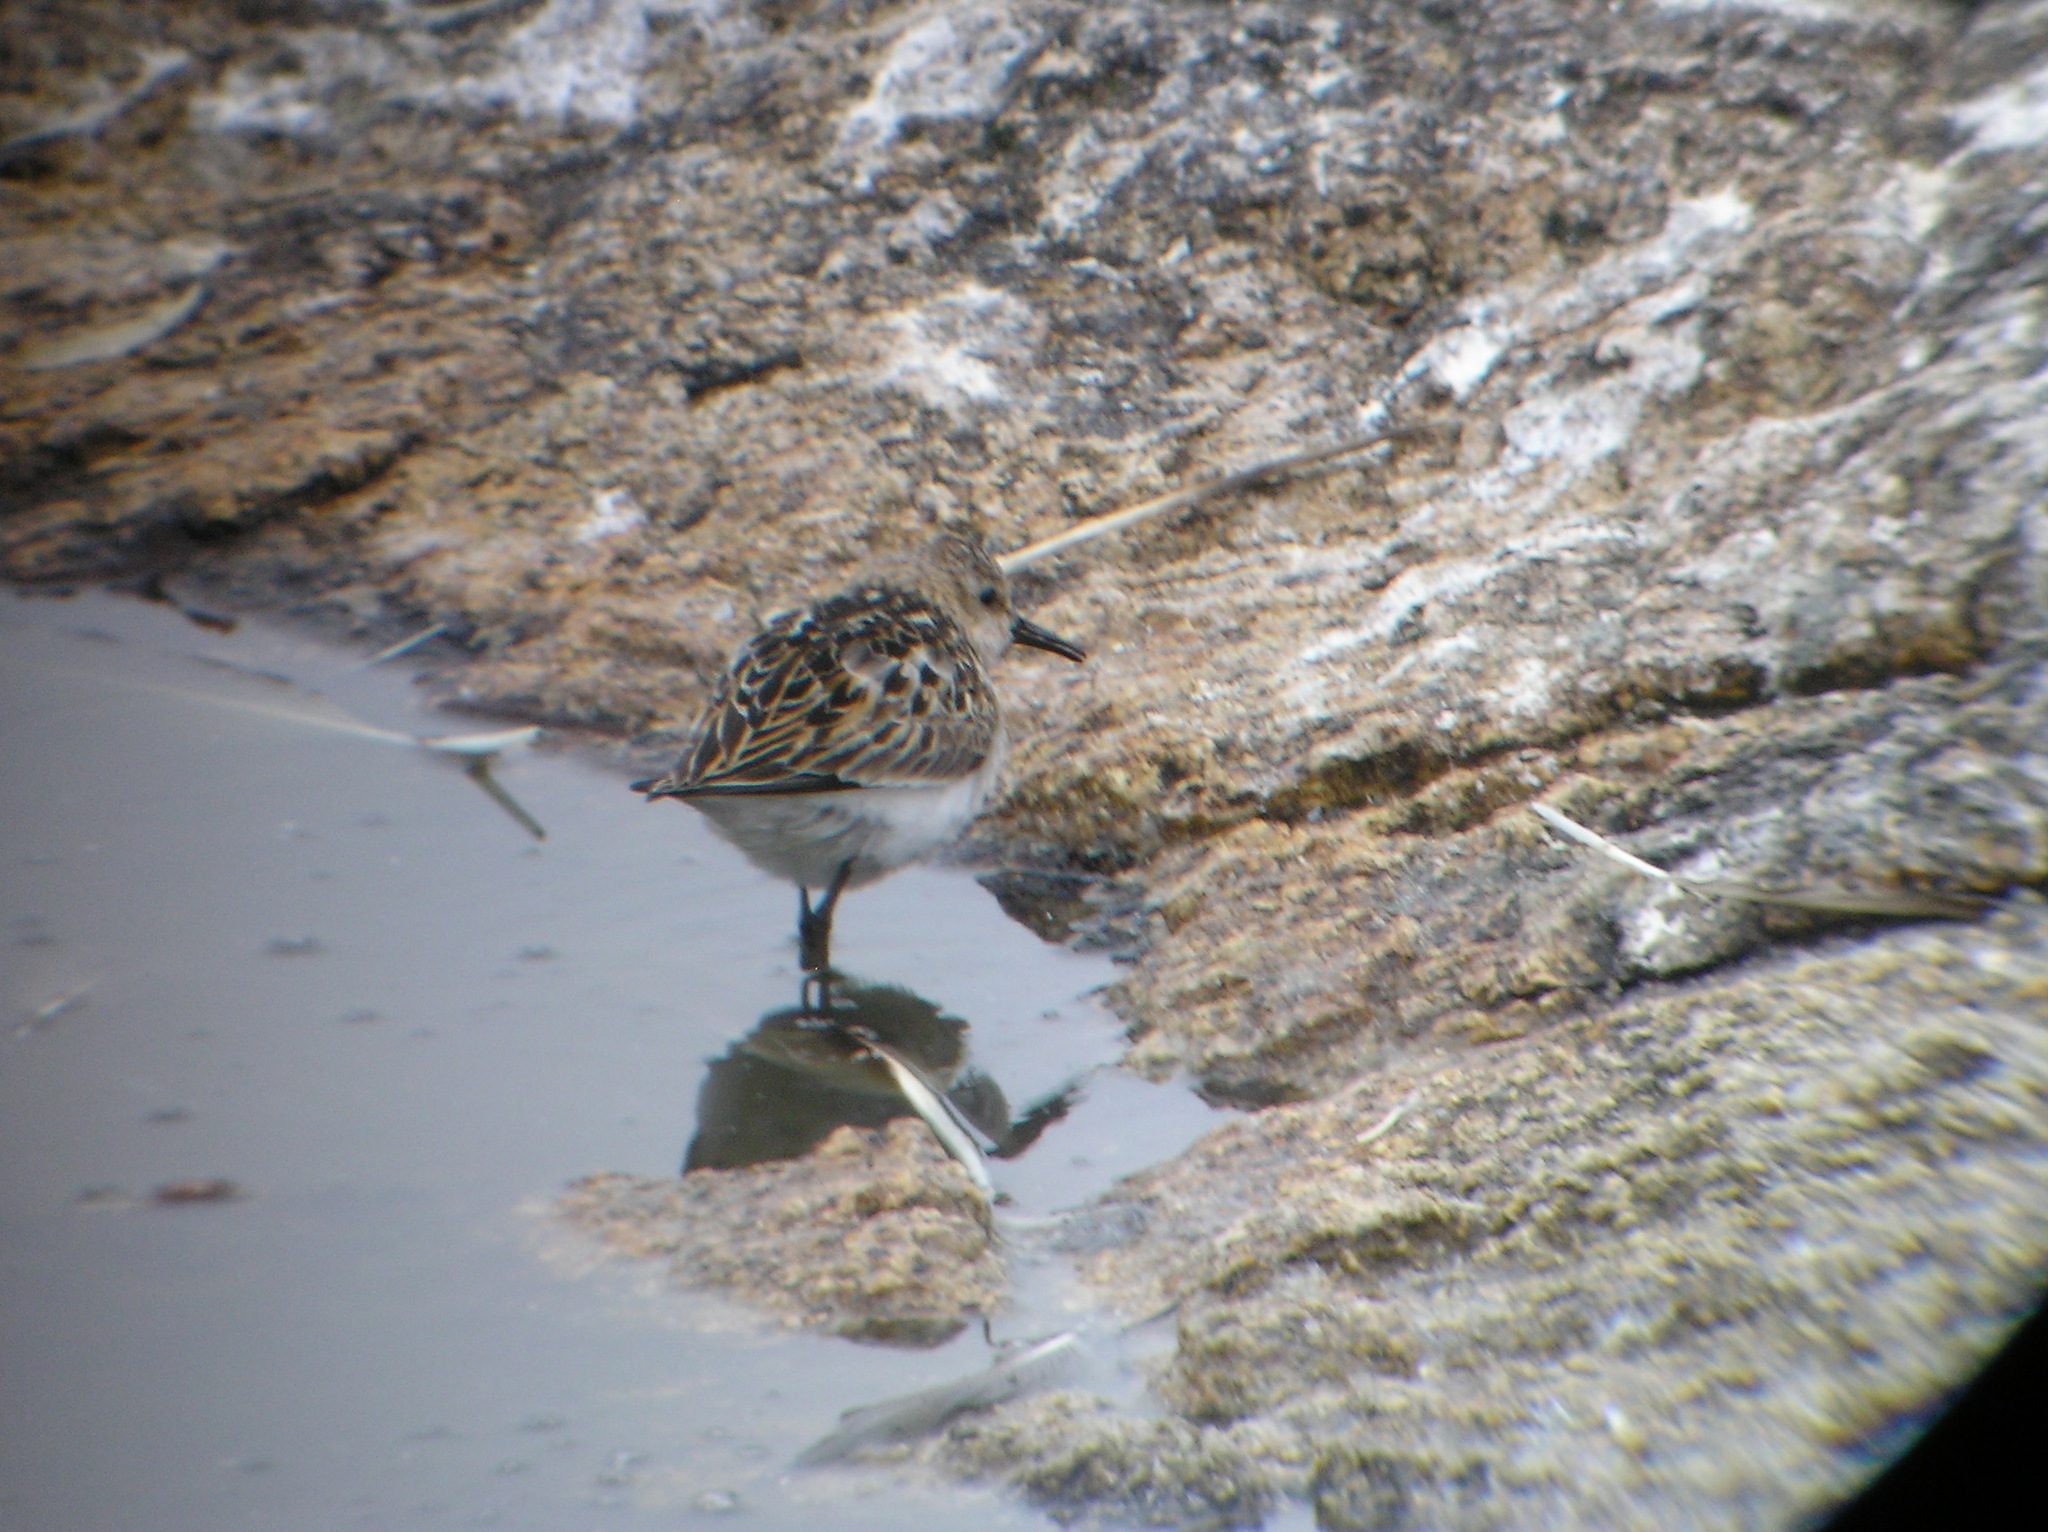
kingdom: Animalia
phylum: Chordata
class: Aves
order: Charadriiformes
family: Scolopacidae
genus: Calidris
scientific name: Calidris minuta
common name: Little stint
